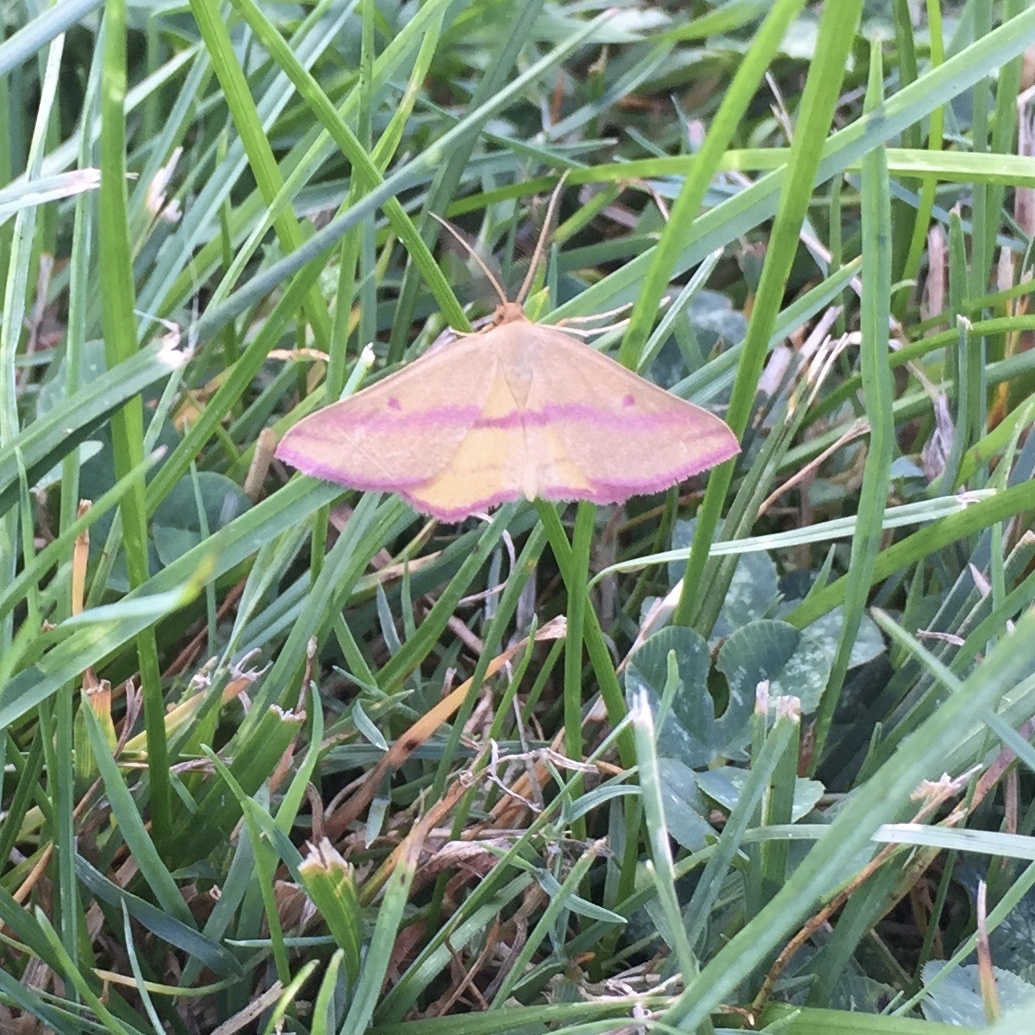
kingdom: Animalia
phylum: Arthropoda
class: Insecta
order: Lepidoptera
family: Geometridae
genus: Haematopis
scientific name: Haematopis grataria
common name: Chickweed geometer
